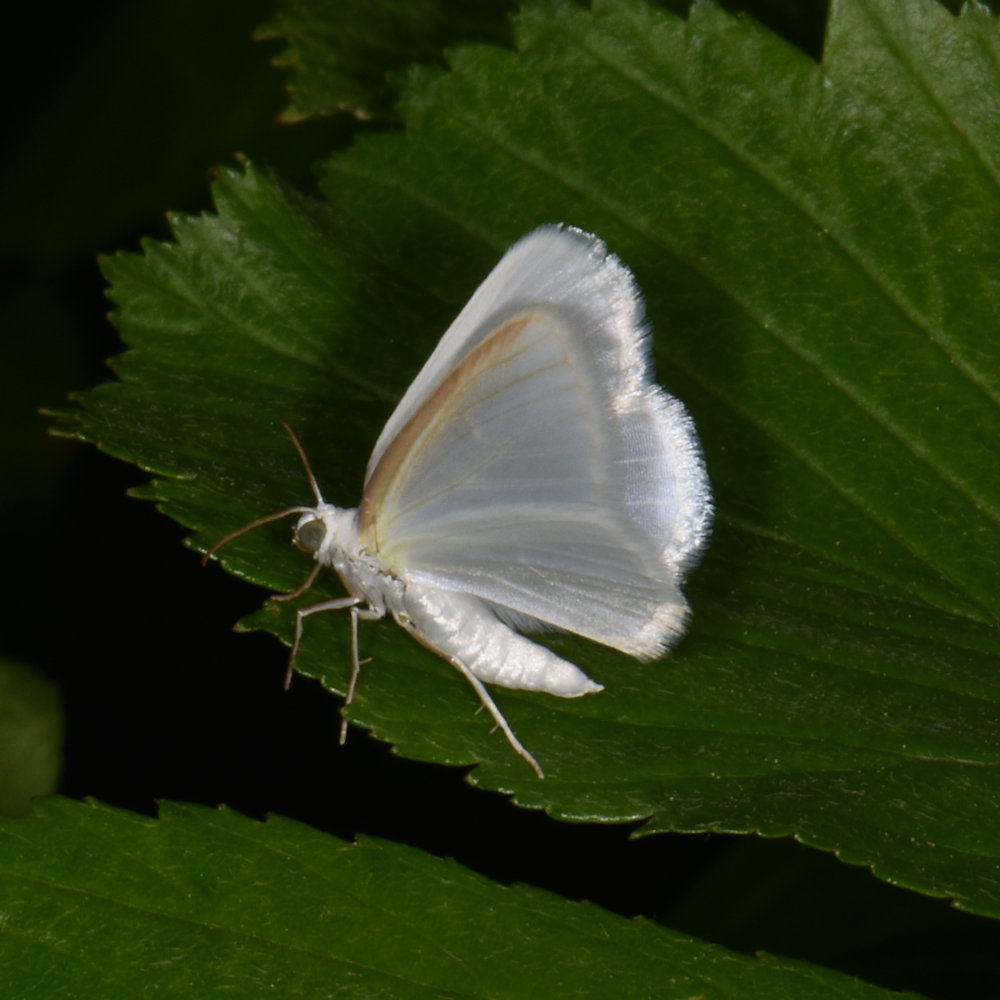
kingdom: Animalia
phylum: Arthropoda
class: Insecta
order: Lepidoptera
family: Geometridae
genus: Lomographa
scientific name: Lomographa vestaliata
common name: White spring moth
